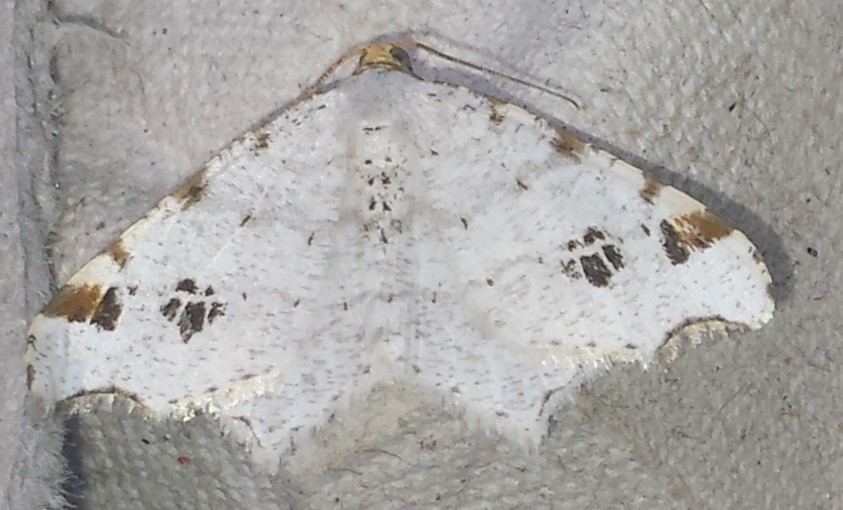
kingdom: Animalia
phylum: Arthropoda
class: Insecta
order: Lepidoptera
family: Geometridae
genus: Macaria
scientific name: Macaria ulsterata
